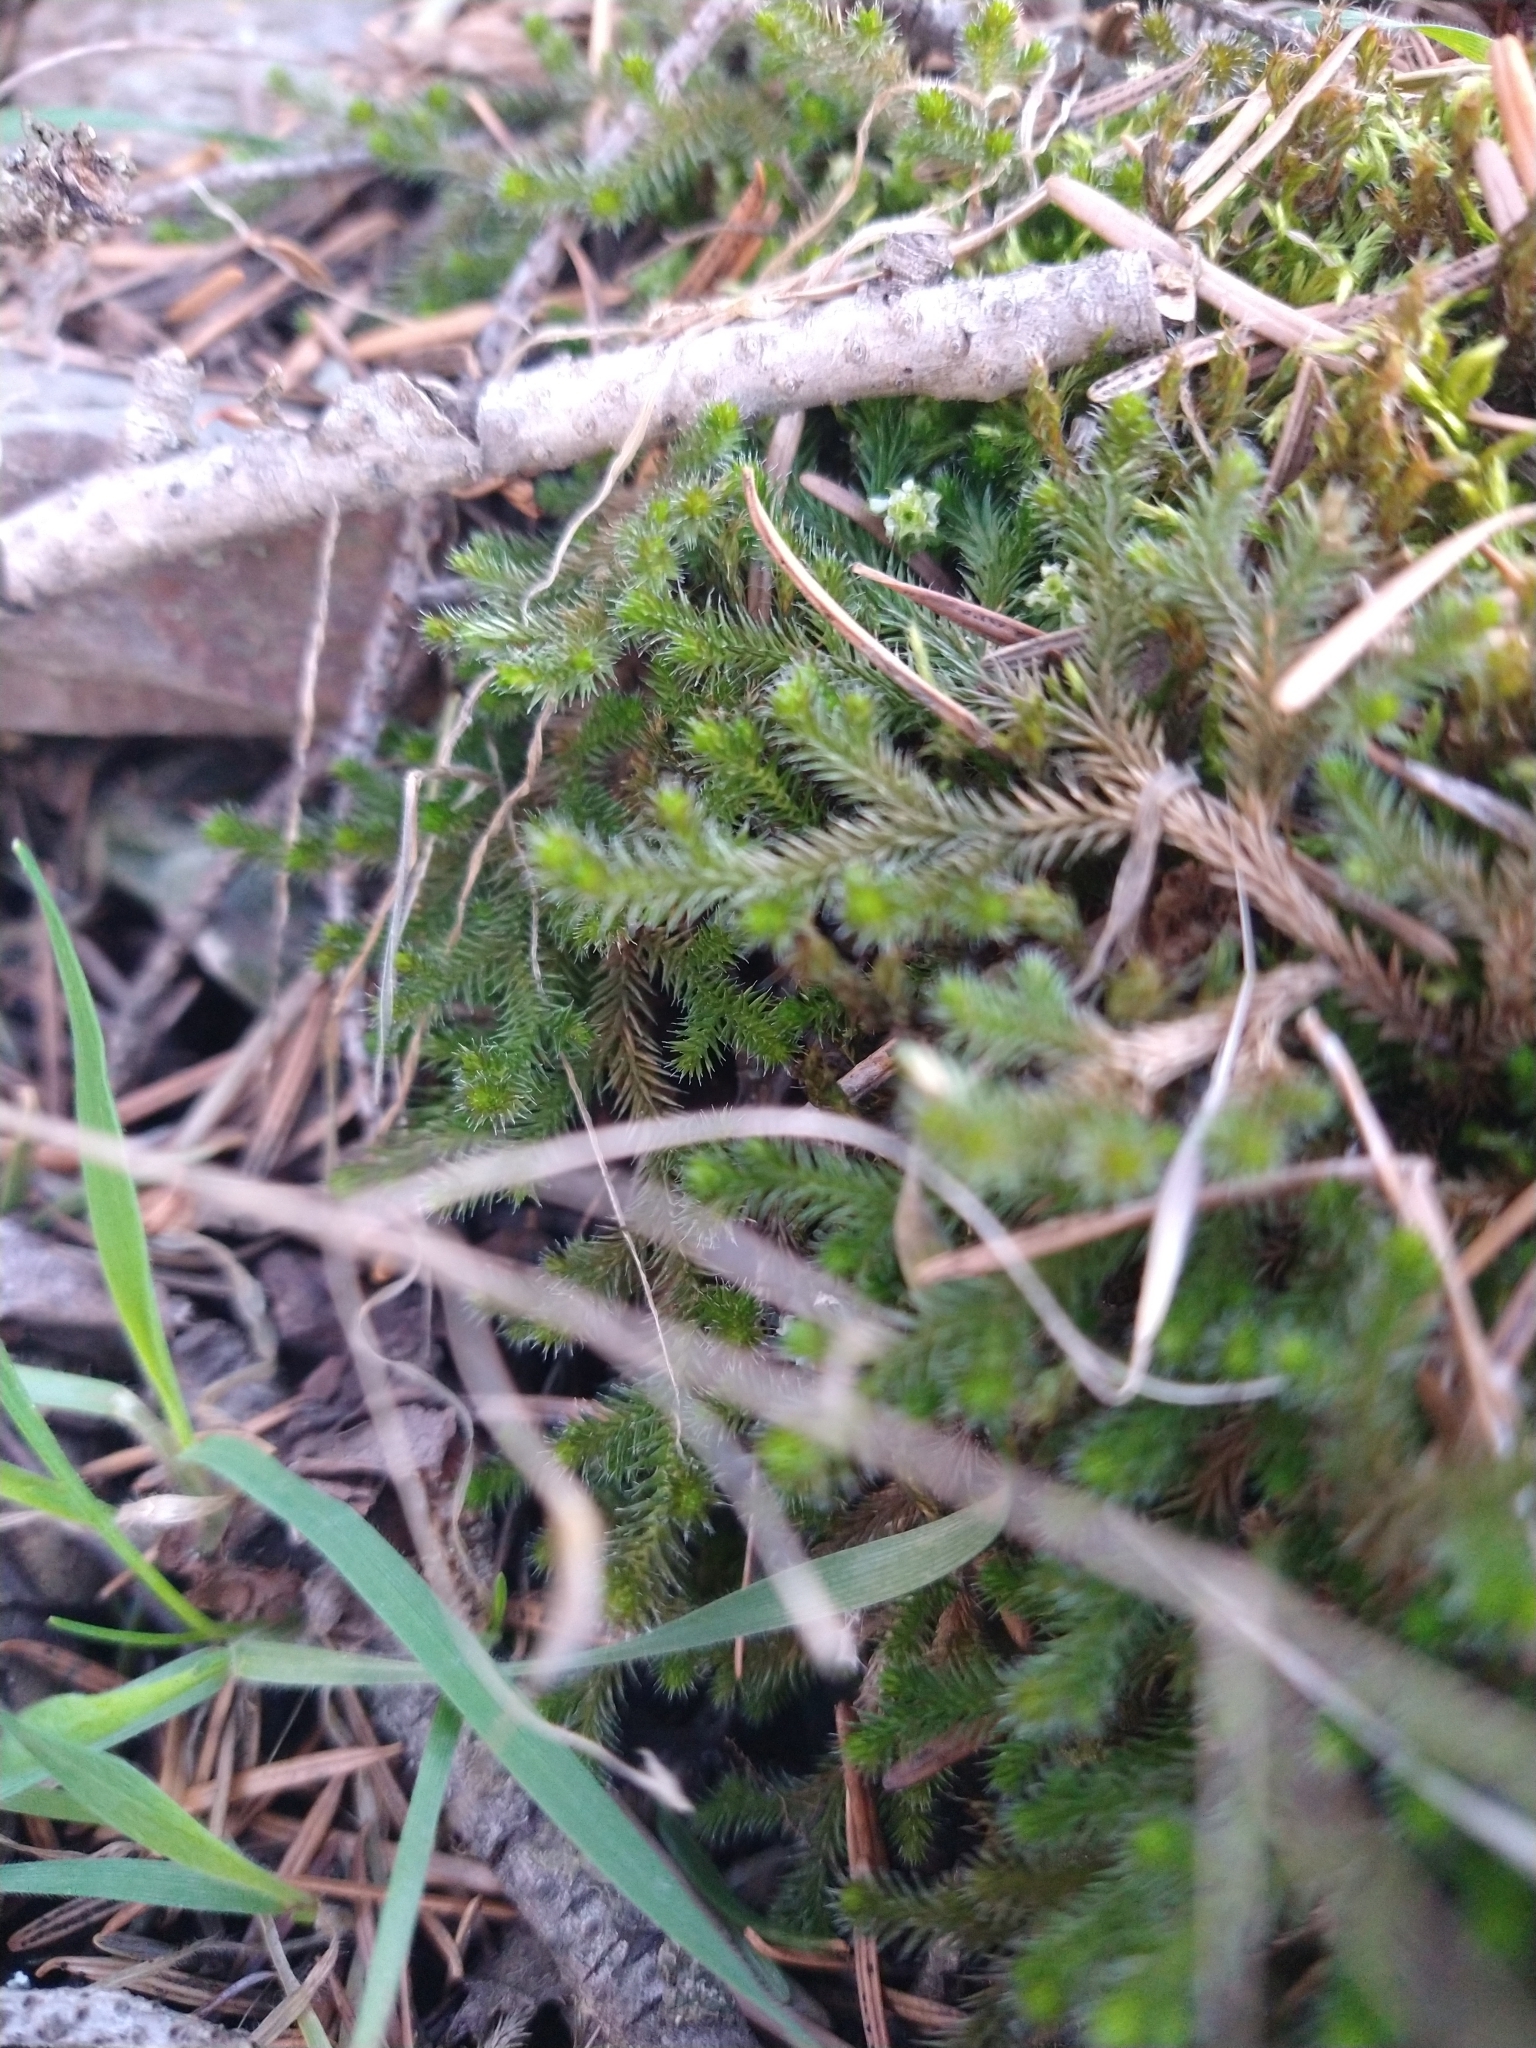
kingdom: Plantae
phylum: Tracheophyta
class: Lycopodiopsida
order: Selaginellales
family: Selaginellaceae
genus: Selaginella
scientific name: Selaginella wallacei
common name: Wallace's selaginella
